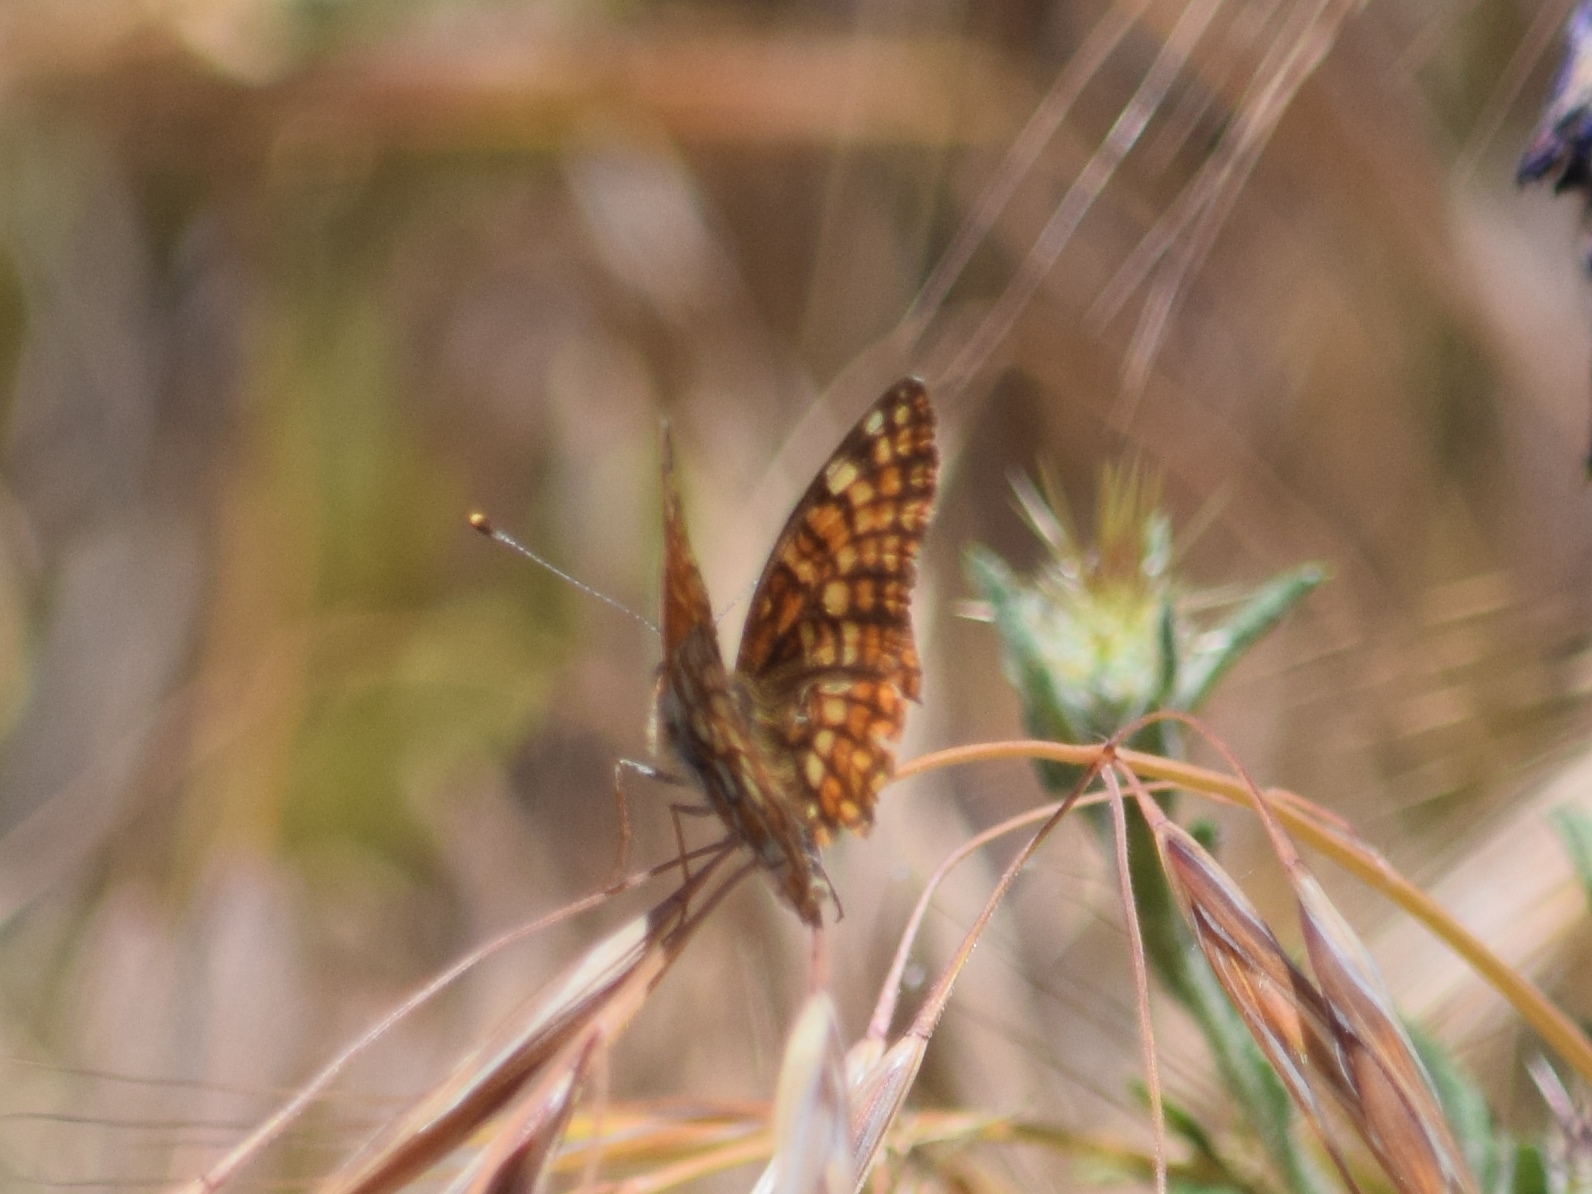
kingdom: Animalia
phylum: Arthropoda
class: Insecta
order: Lepidoptera
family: Nymphalidae
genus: Chlosyne
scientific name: Chlosyne gabbii
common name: Gabb's checkerspot
